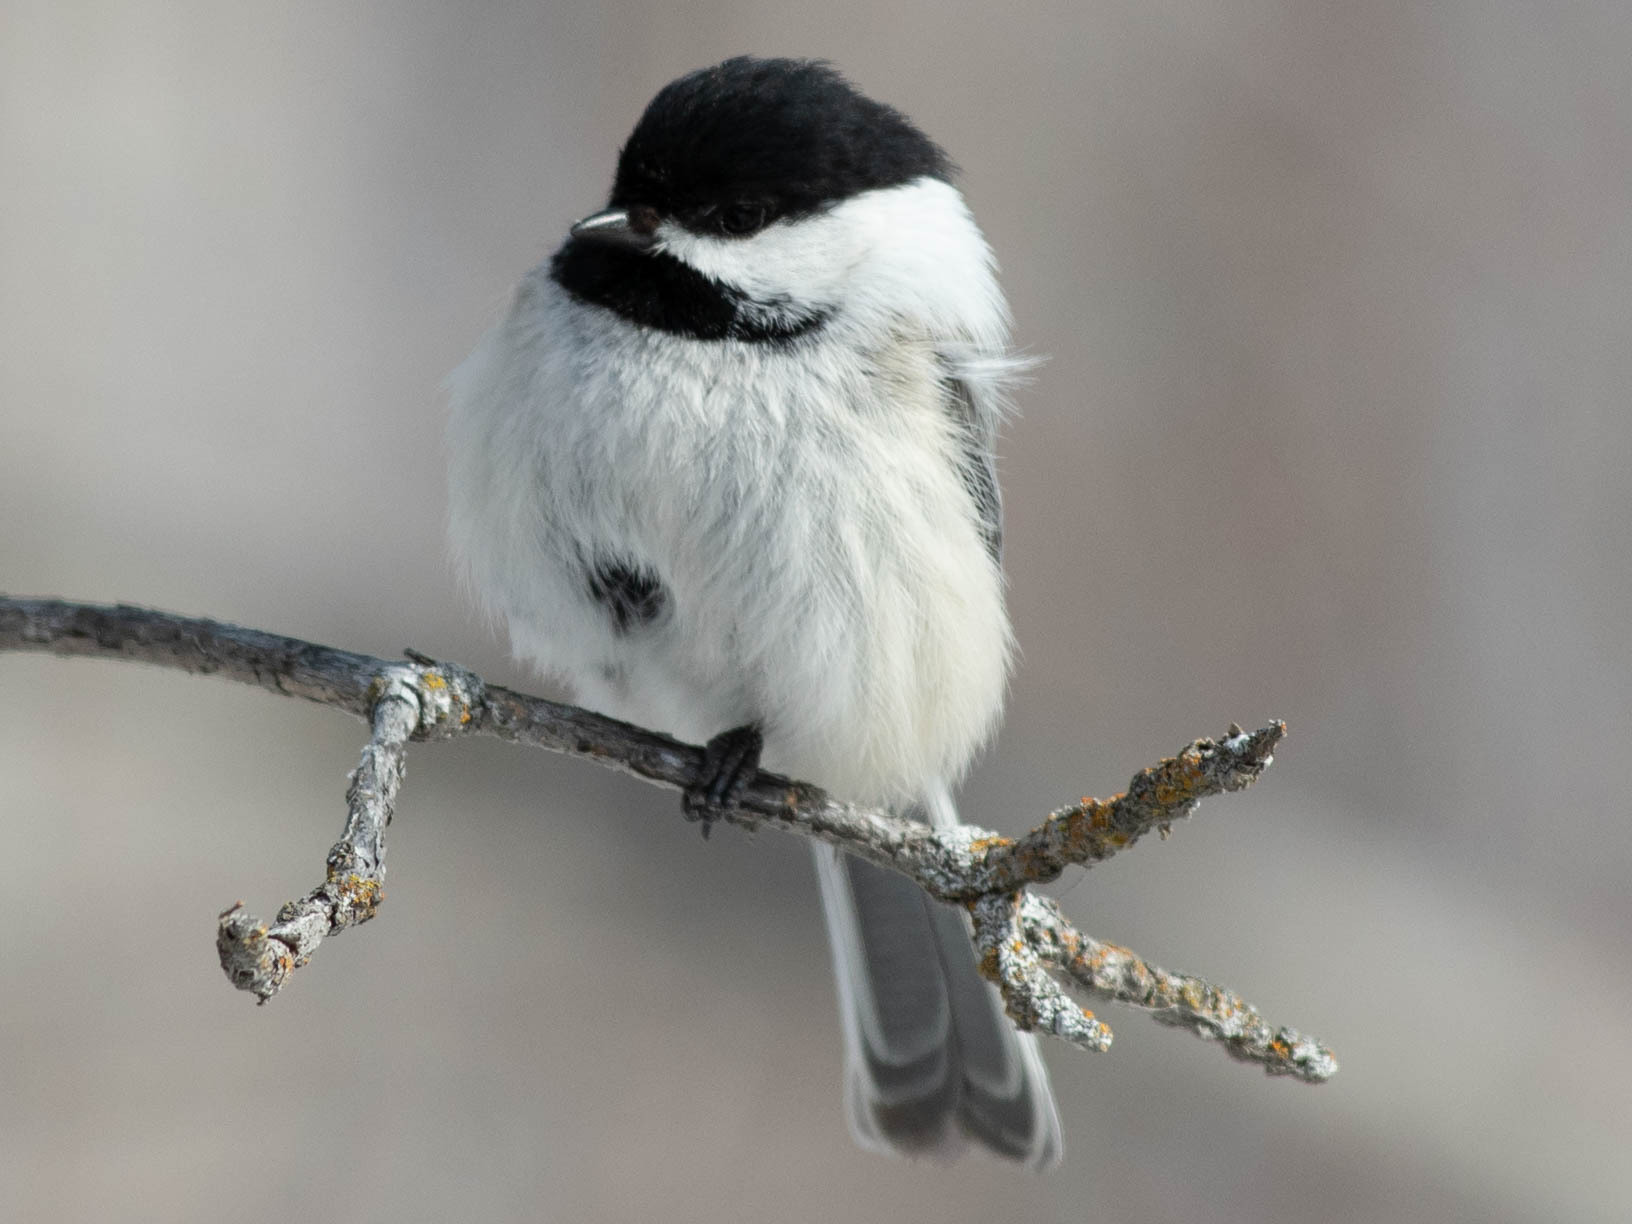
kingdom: Animalia
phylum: Chordata
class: Aves
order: Passeriformes
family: Paridae
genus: Poecile
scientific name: Poecile atricapillus
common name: Black-capped chickadee
